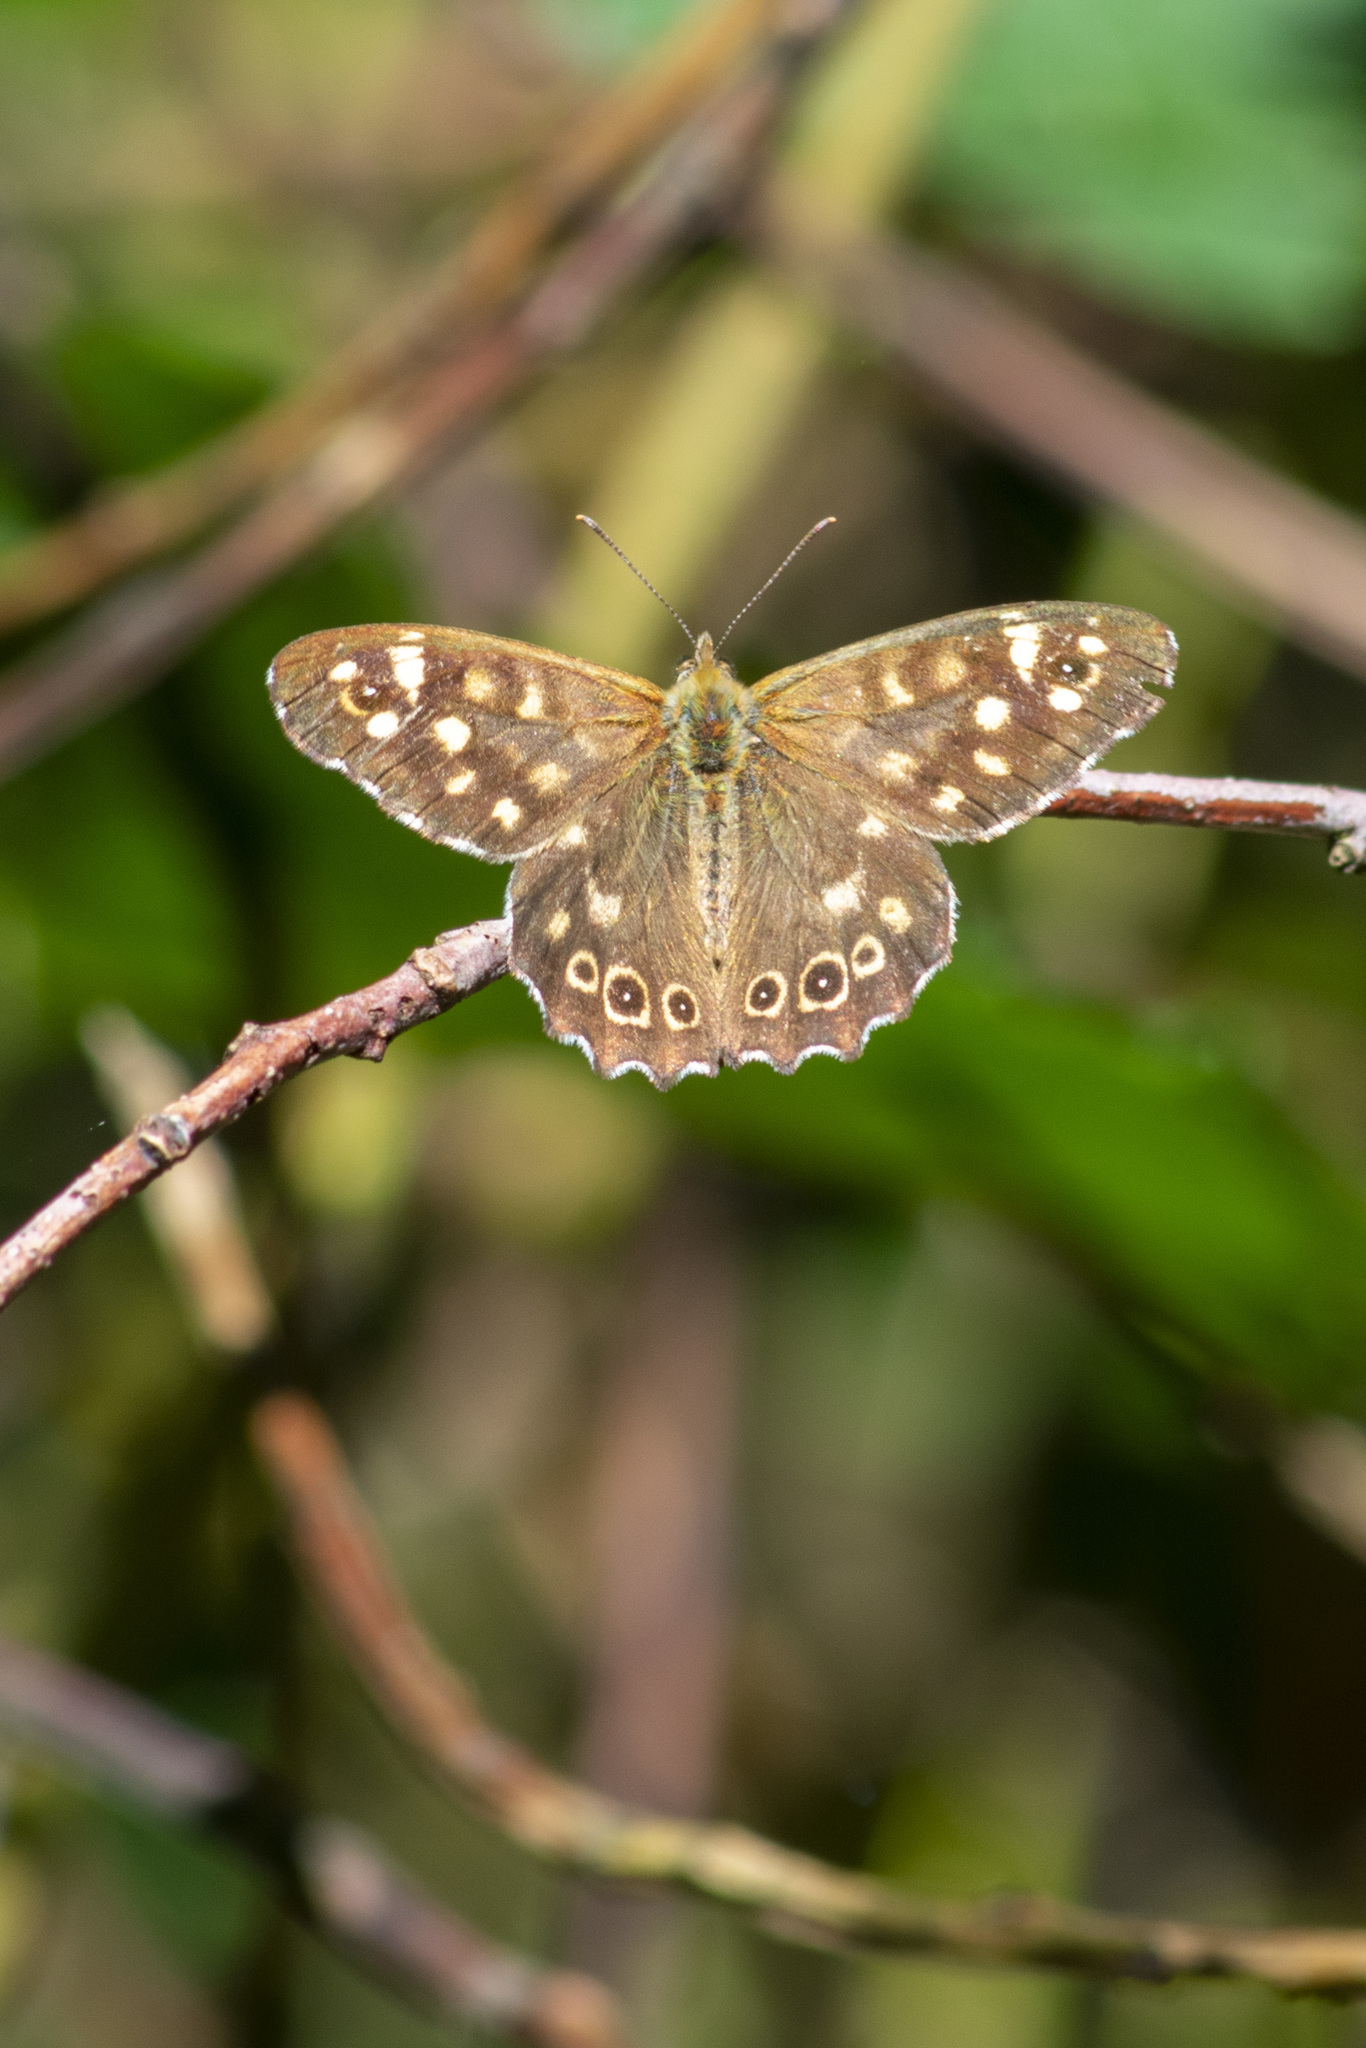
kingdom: Animalia
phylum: Arthropoda
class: Insecta
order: Lepidoptera
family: Nymphalidae
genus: Pararge
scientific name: Pararge aegeria
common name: Speckled wood
